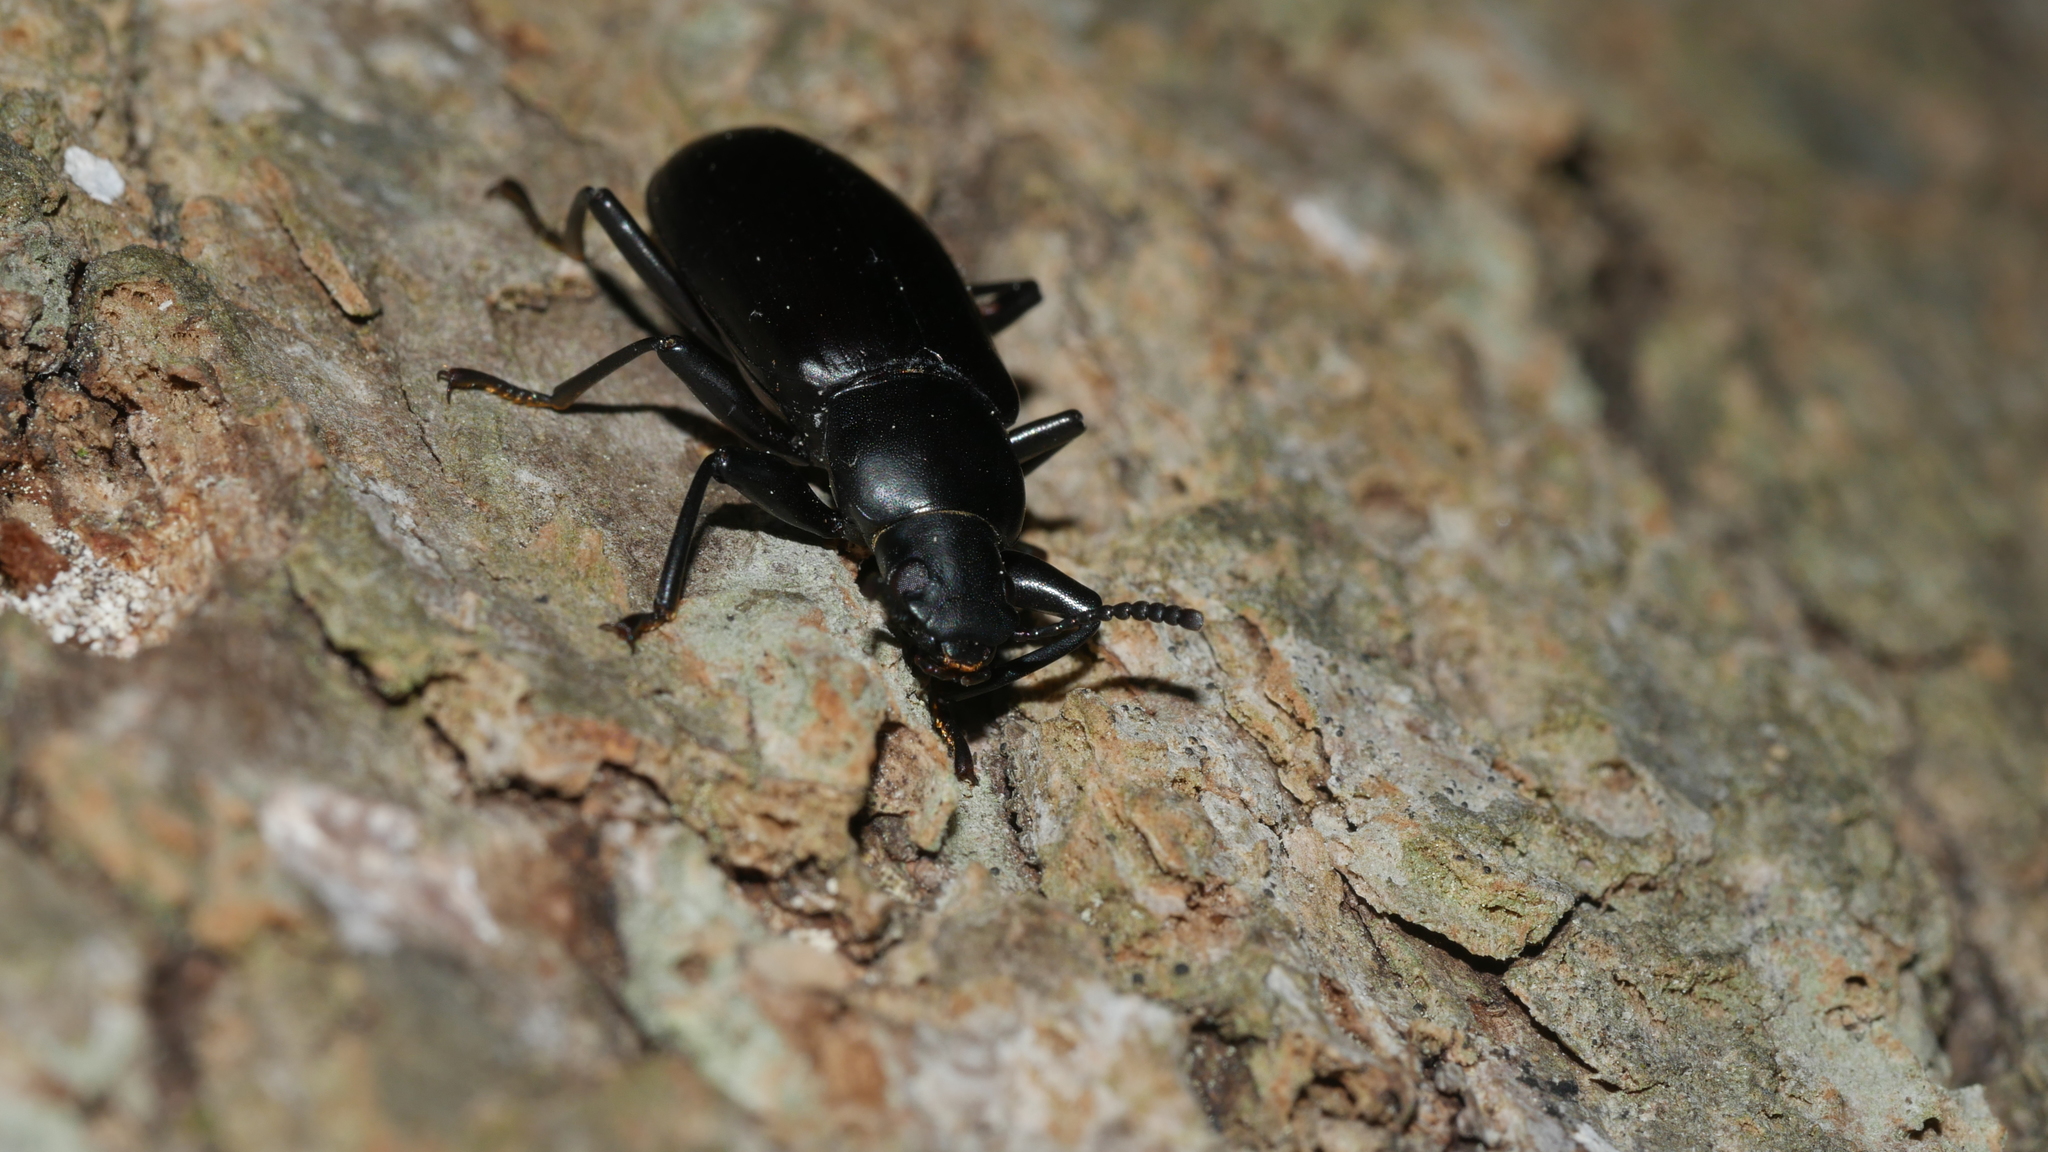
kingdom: Animalia
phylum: Arthropoda
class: Insecta
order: Coleoptera
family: Tenebrionidae
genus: Alobates
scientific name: Alobates
